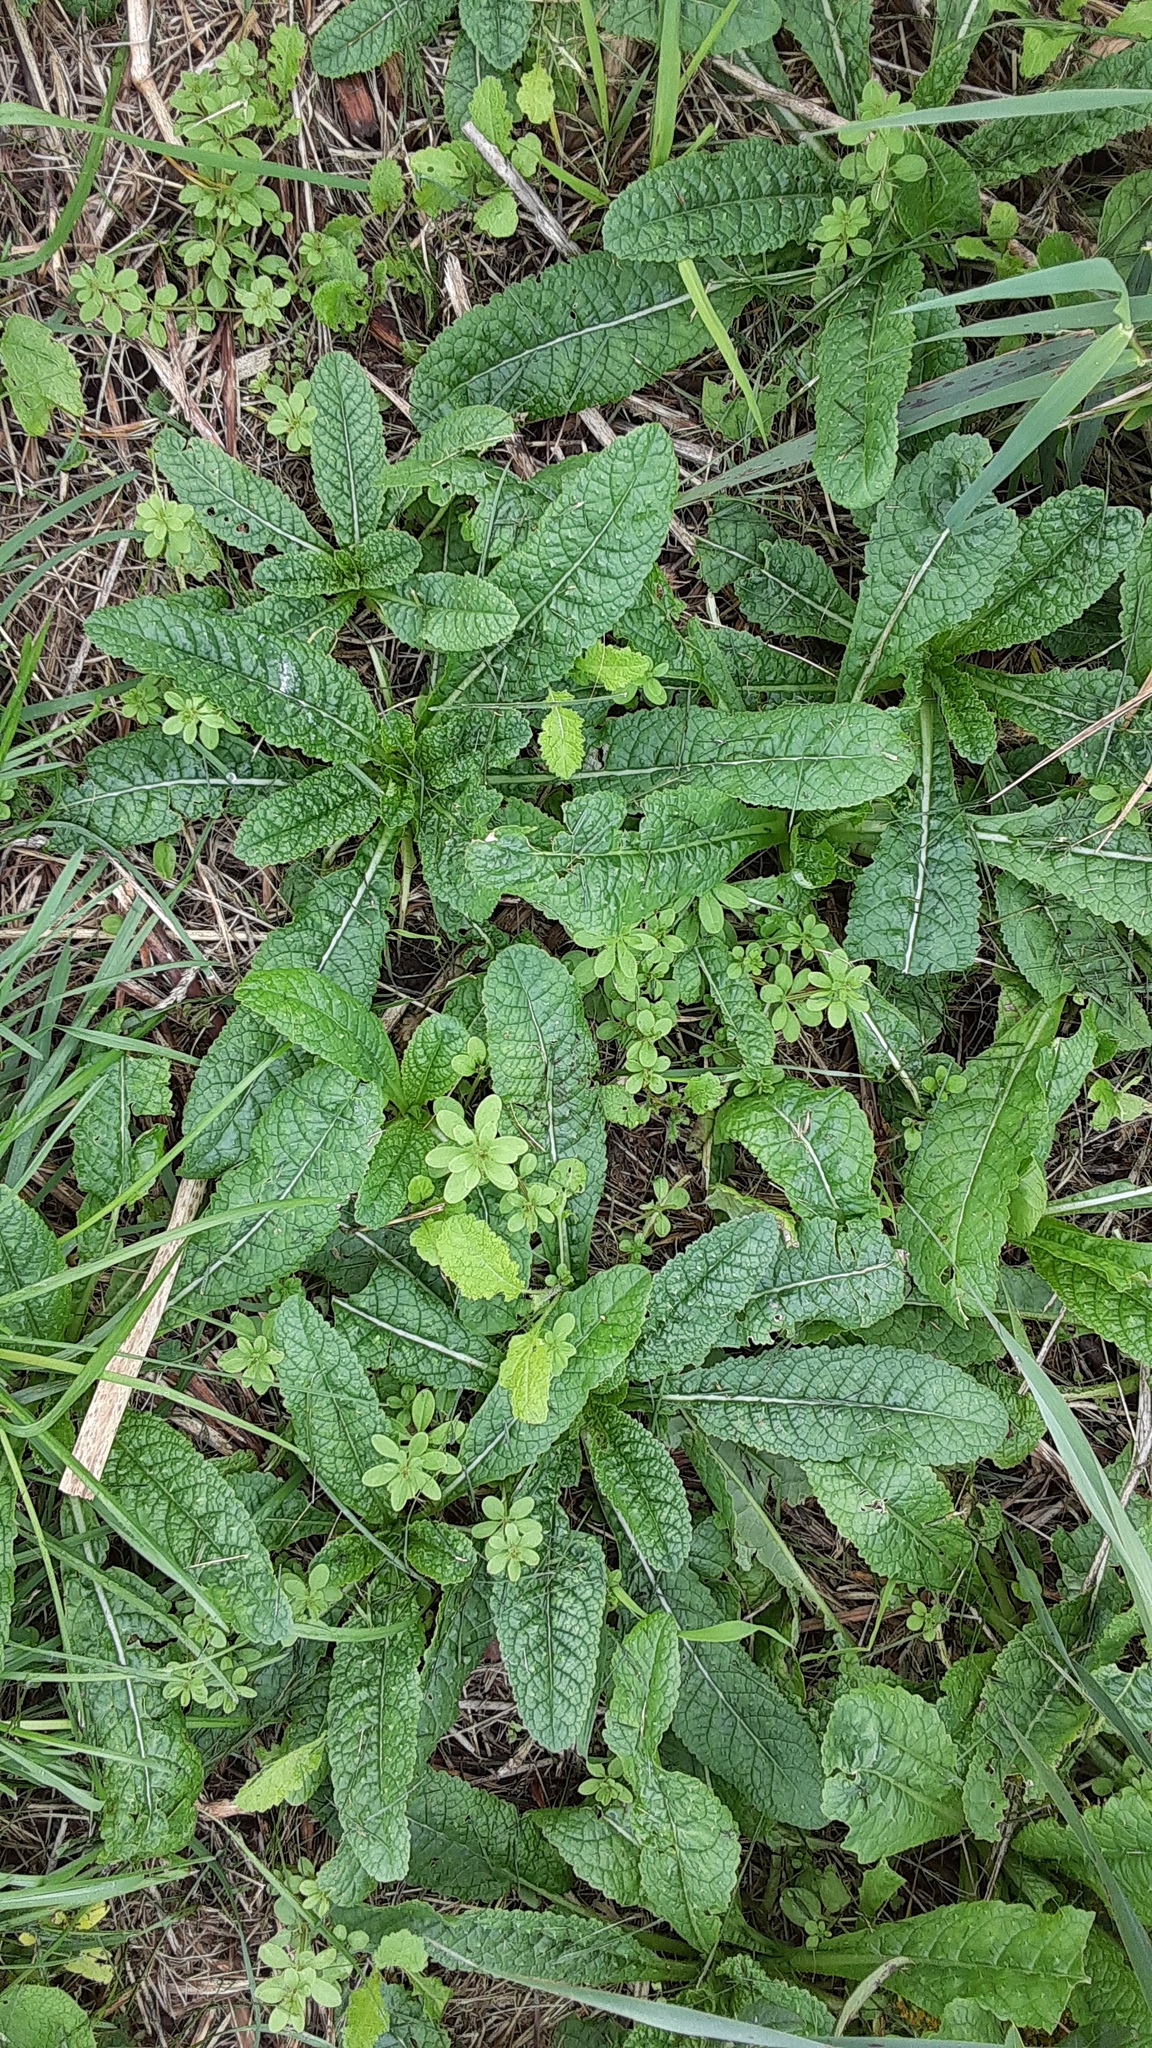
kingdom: Plantae
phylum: Tracheophyta
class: Magnoliopsida
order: Dipsacales
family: Caprifoliaceae
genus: Dipsacus
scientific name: Dipsacus fullonum
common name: Teasel
